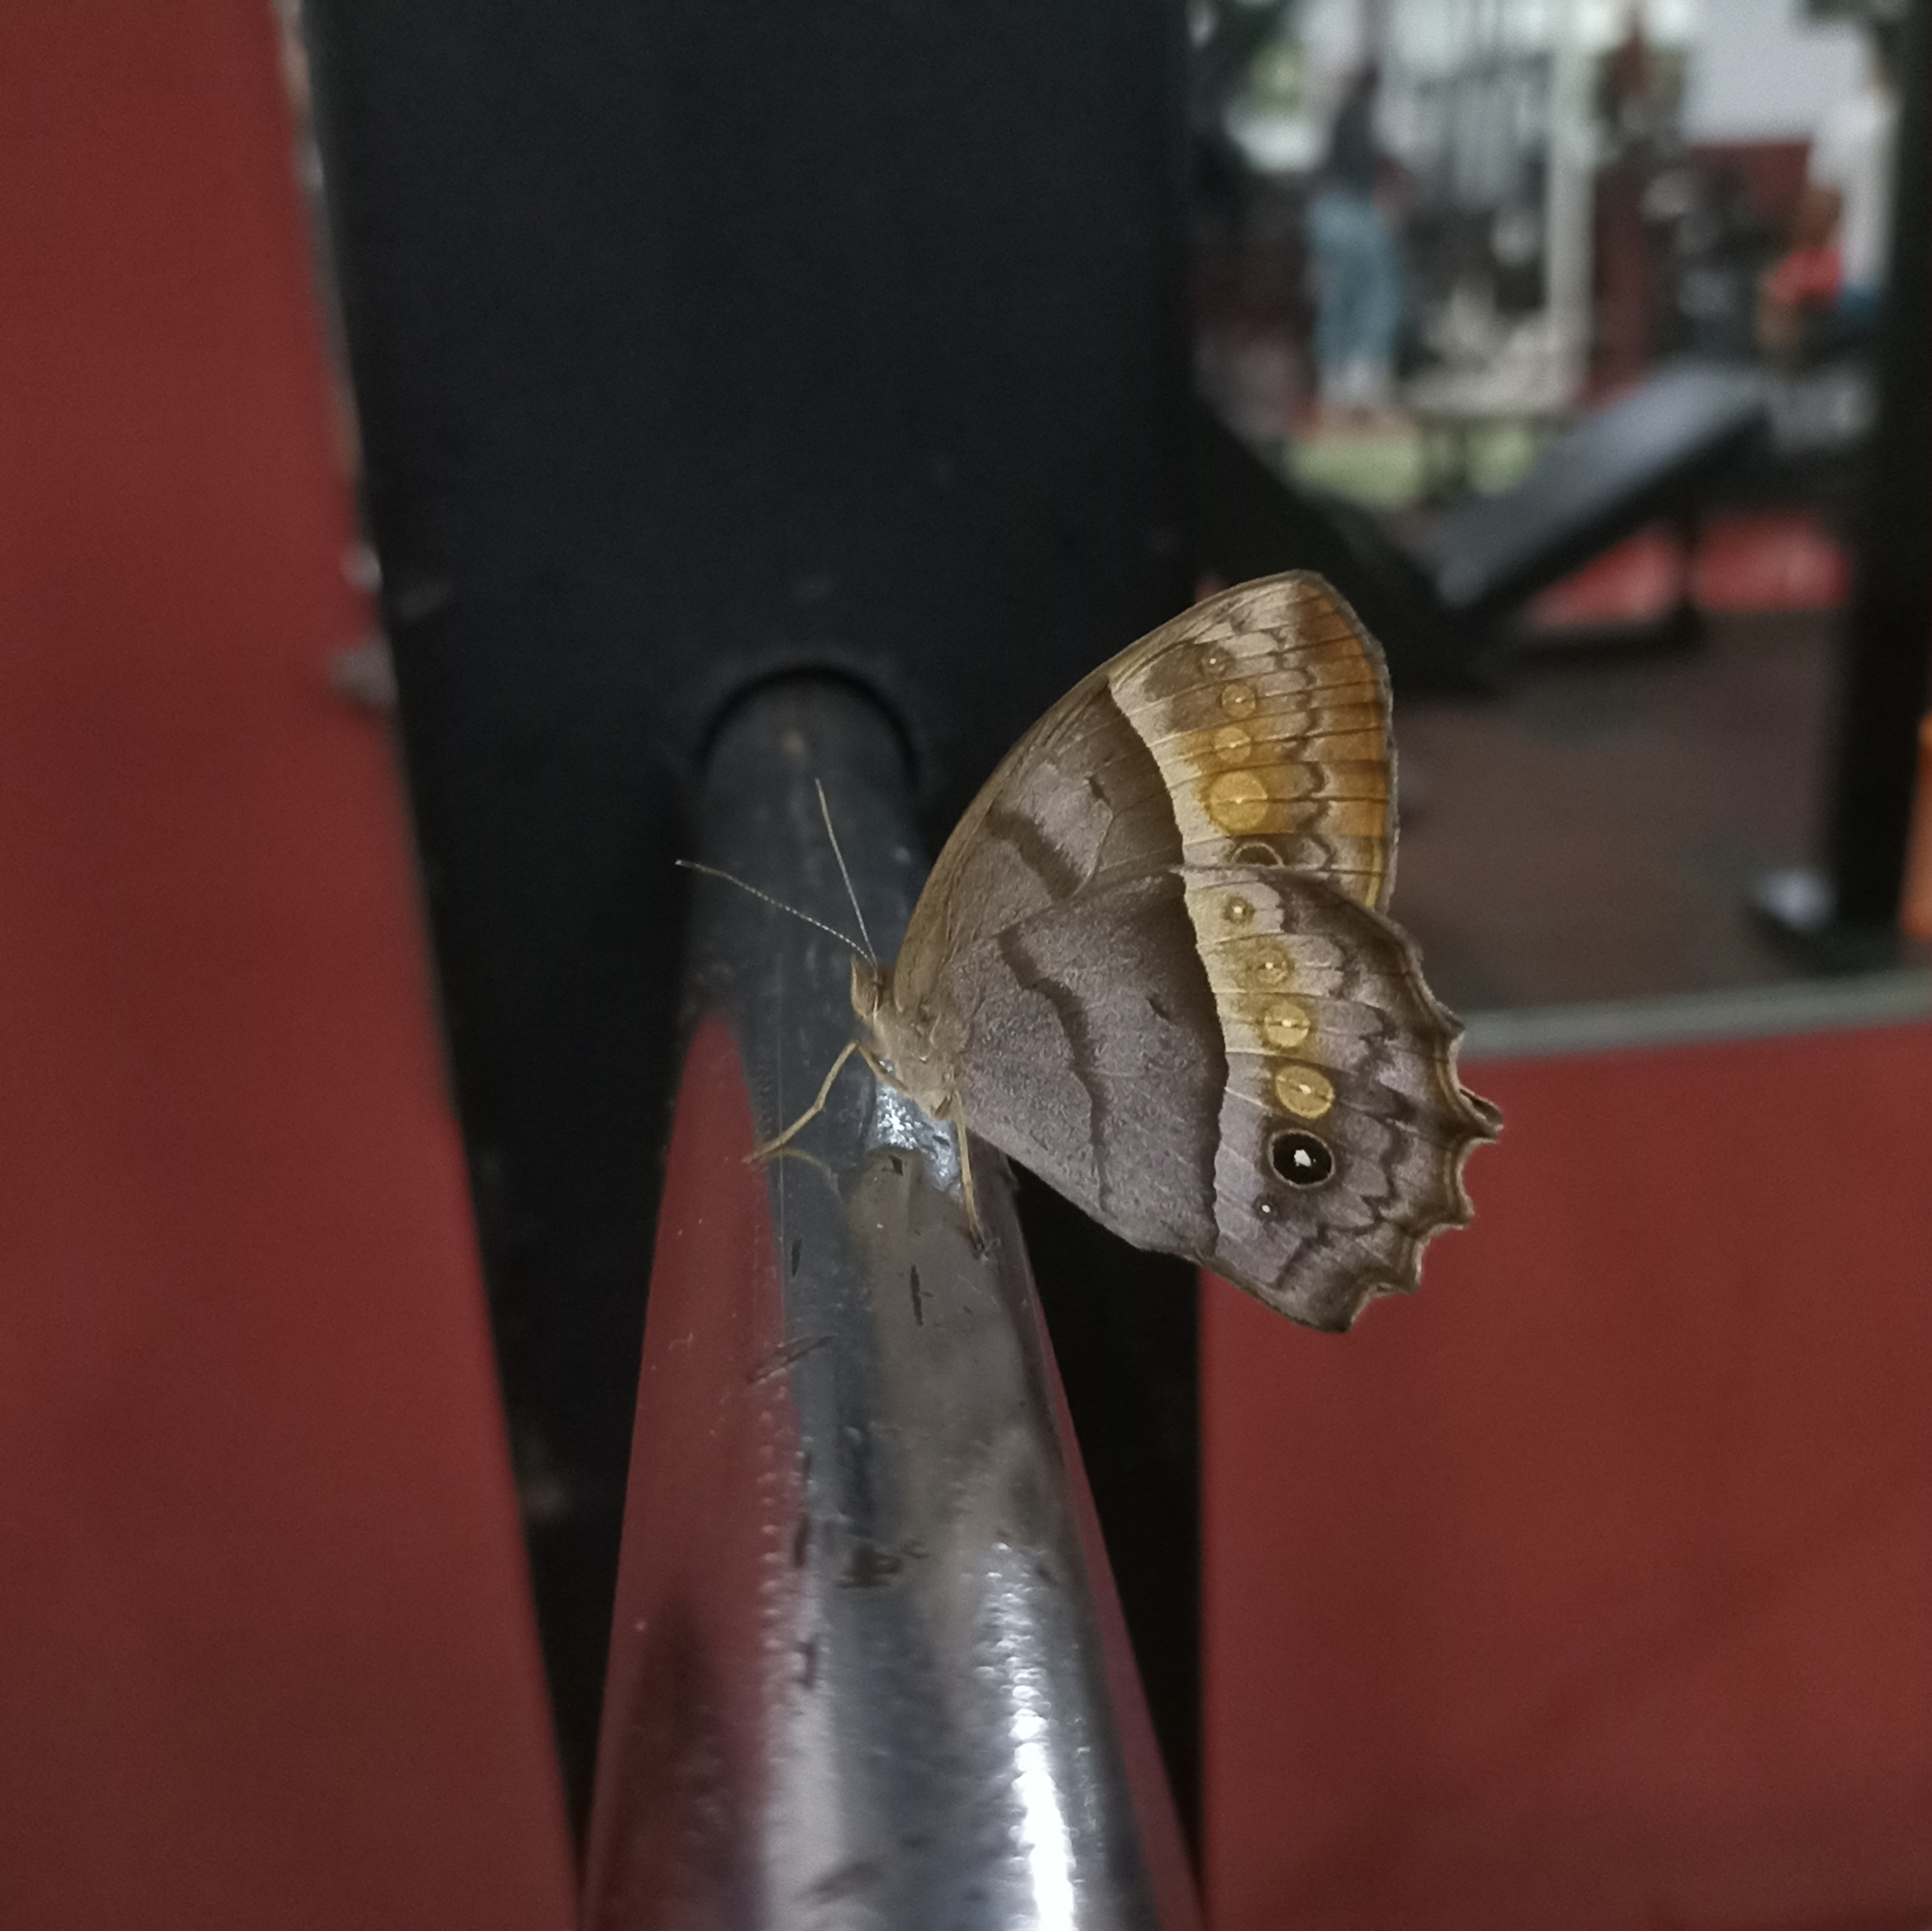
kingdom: Animalia
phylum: Arthropoda
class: Insecta
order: Lepidoptera
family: Nymphalidae
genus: Taygetis
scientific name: Taygetis andromeda
